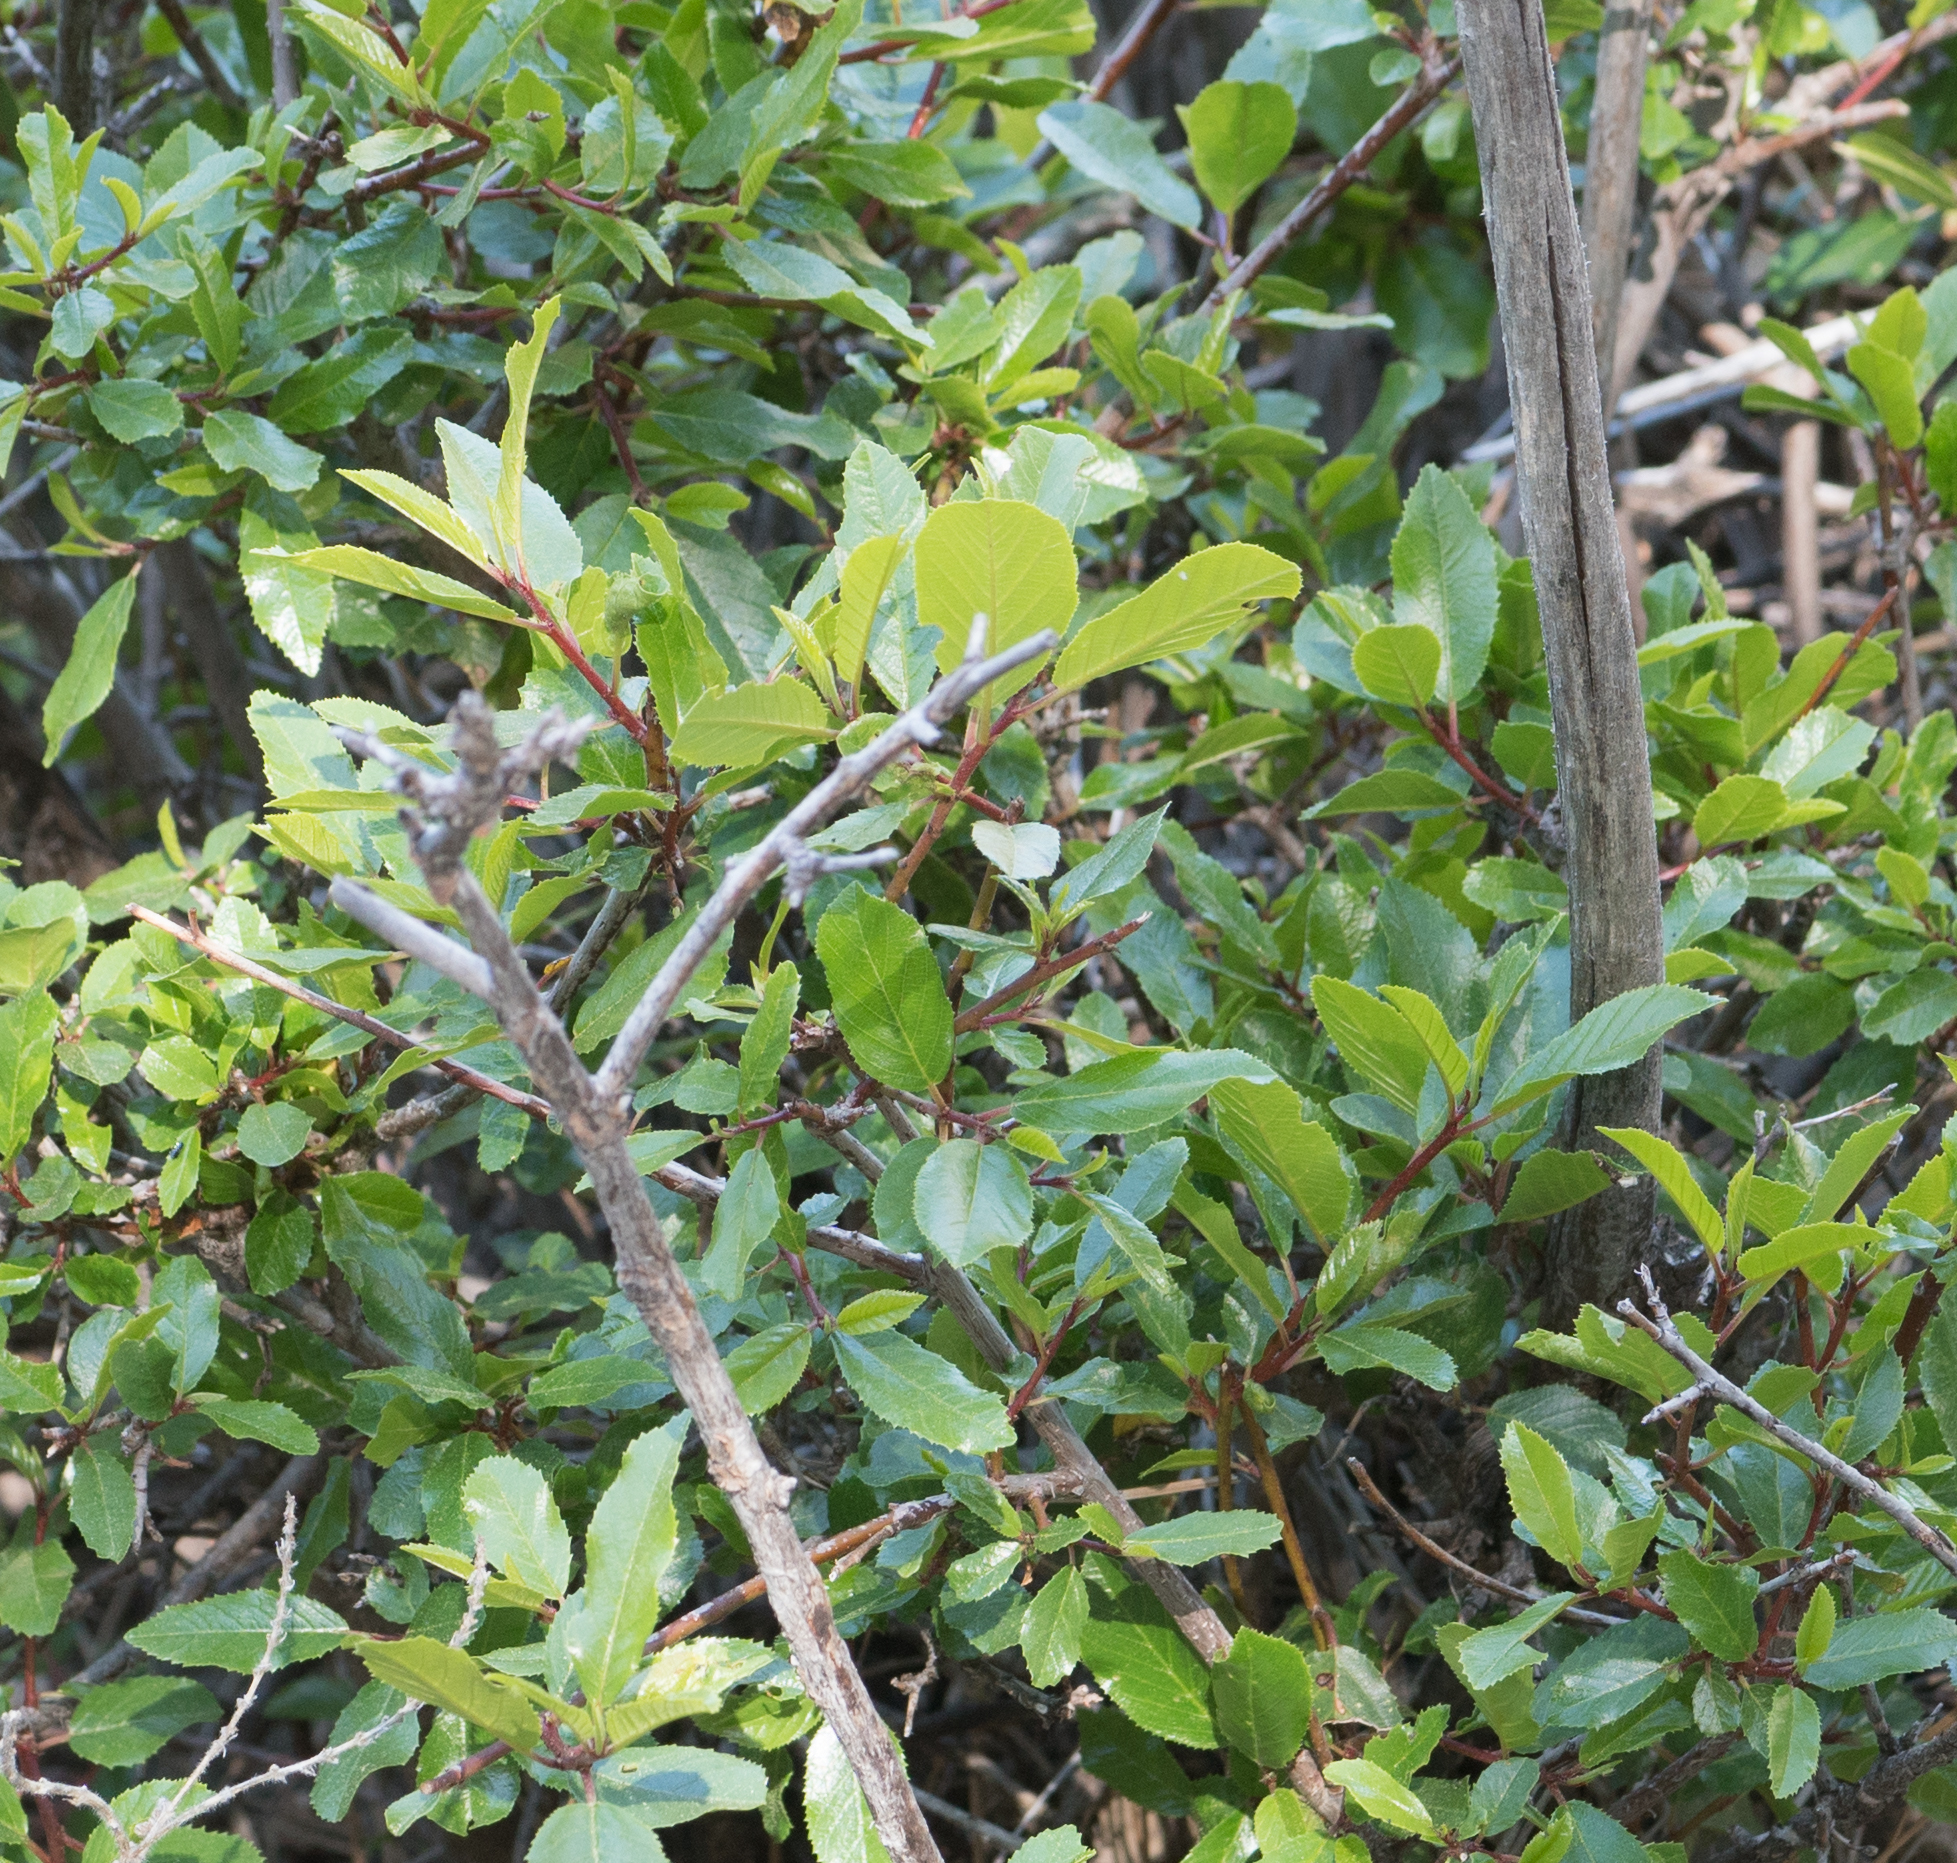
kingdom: Plantae
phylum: Tracheophyta
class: Magnoliopsida
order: Rosales
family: Rhamnaceae
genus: Frangula
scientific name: Frangula californica
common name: California buckthorn
